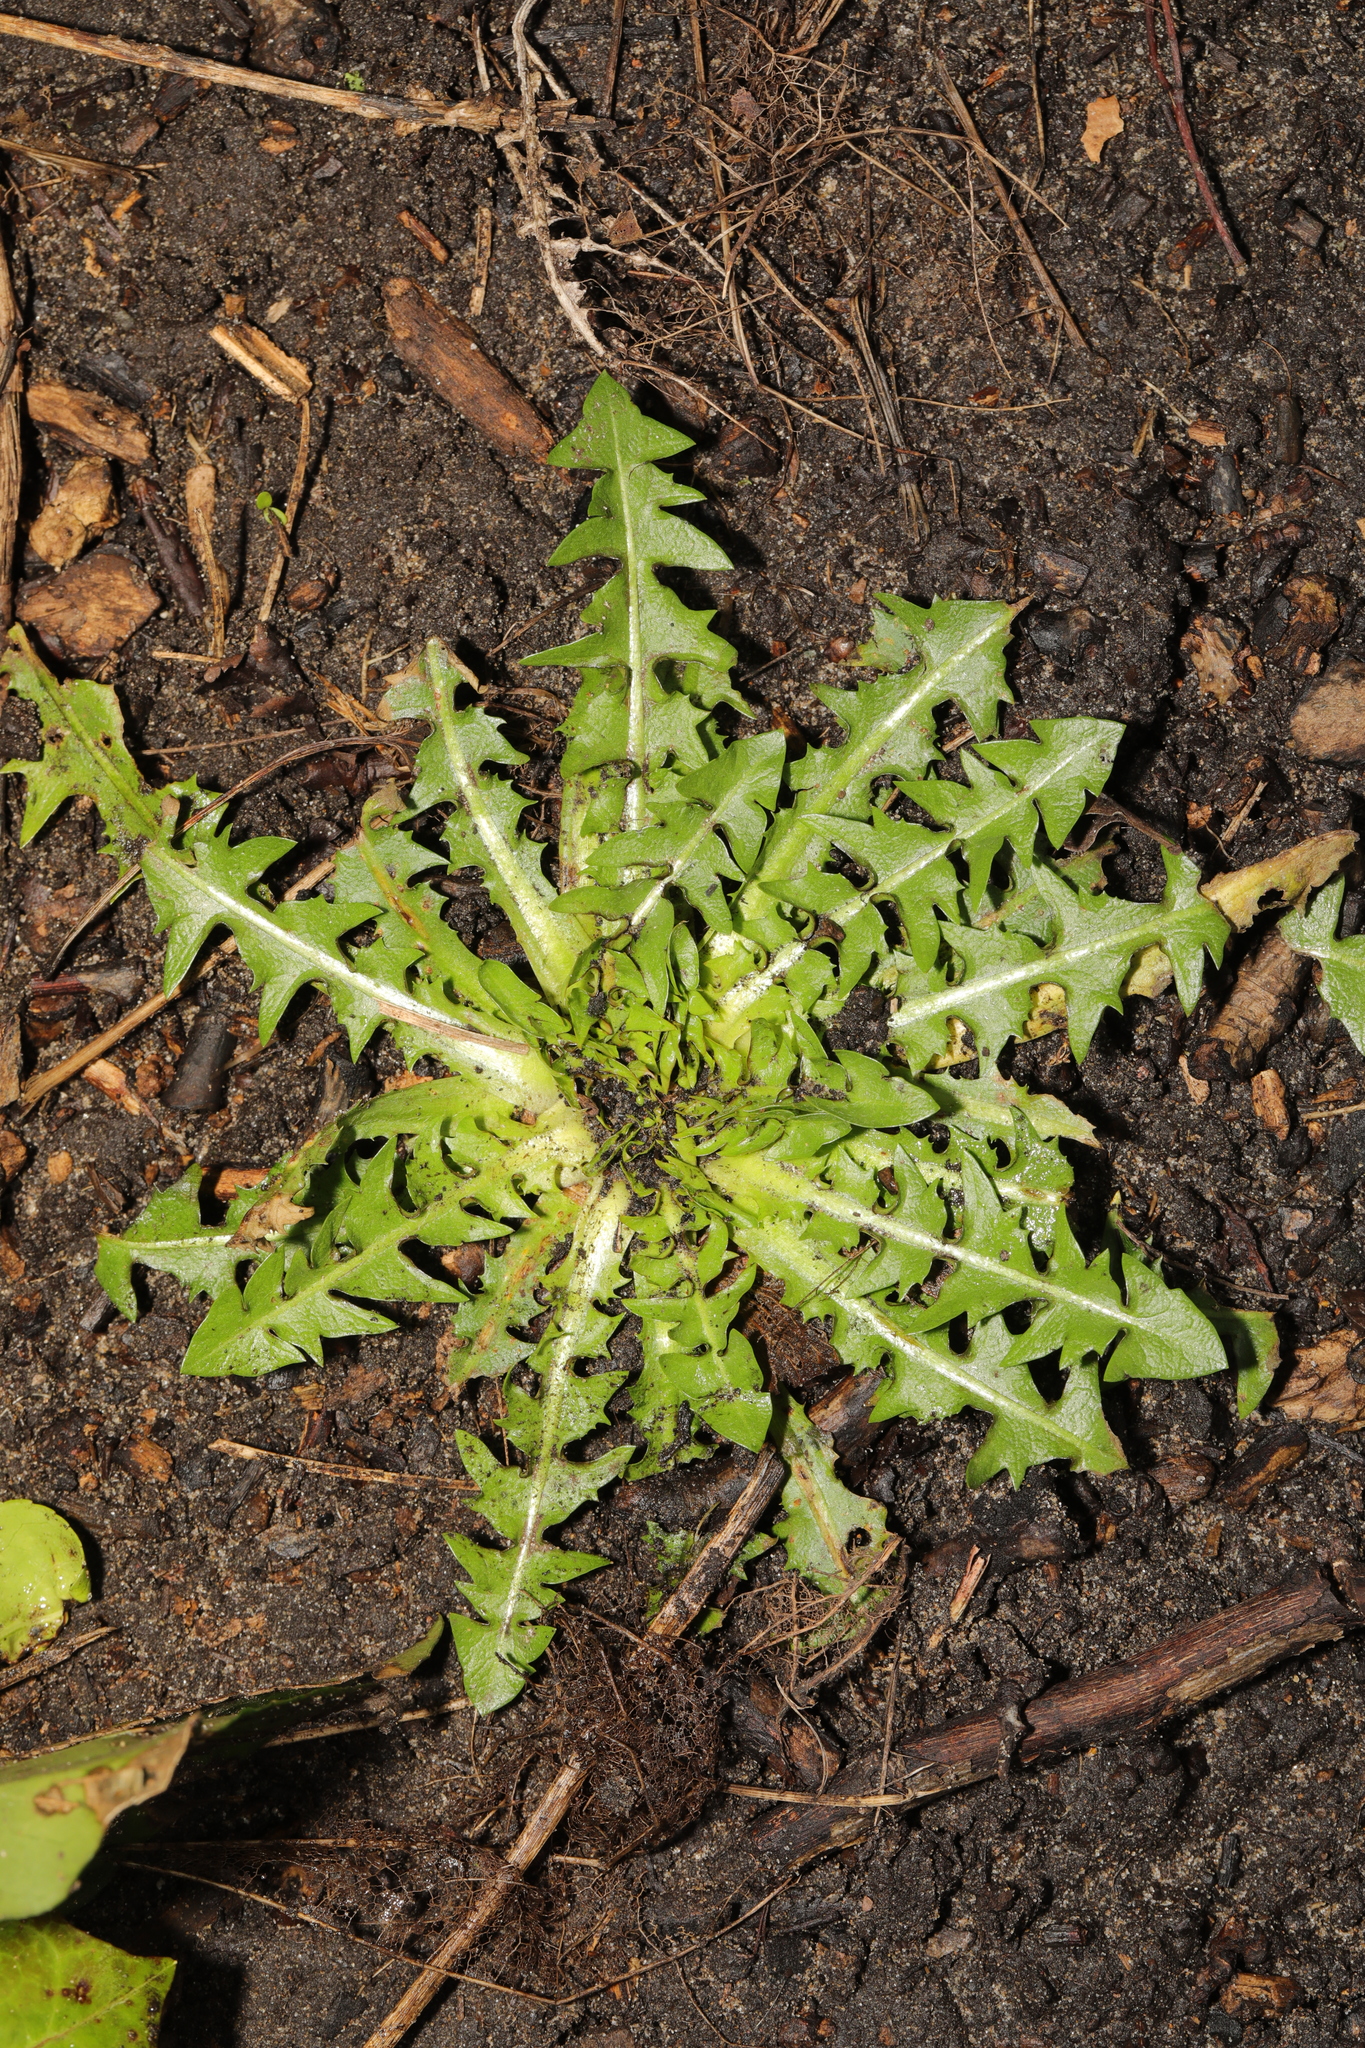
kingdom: Plantae
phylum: Tracheophyta
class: Magnoliopsida
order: Asterales
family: Asteraceae
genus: Taraxacum
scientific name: Taraxacum officinale
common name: Common dandelion
